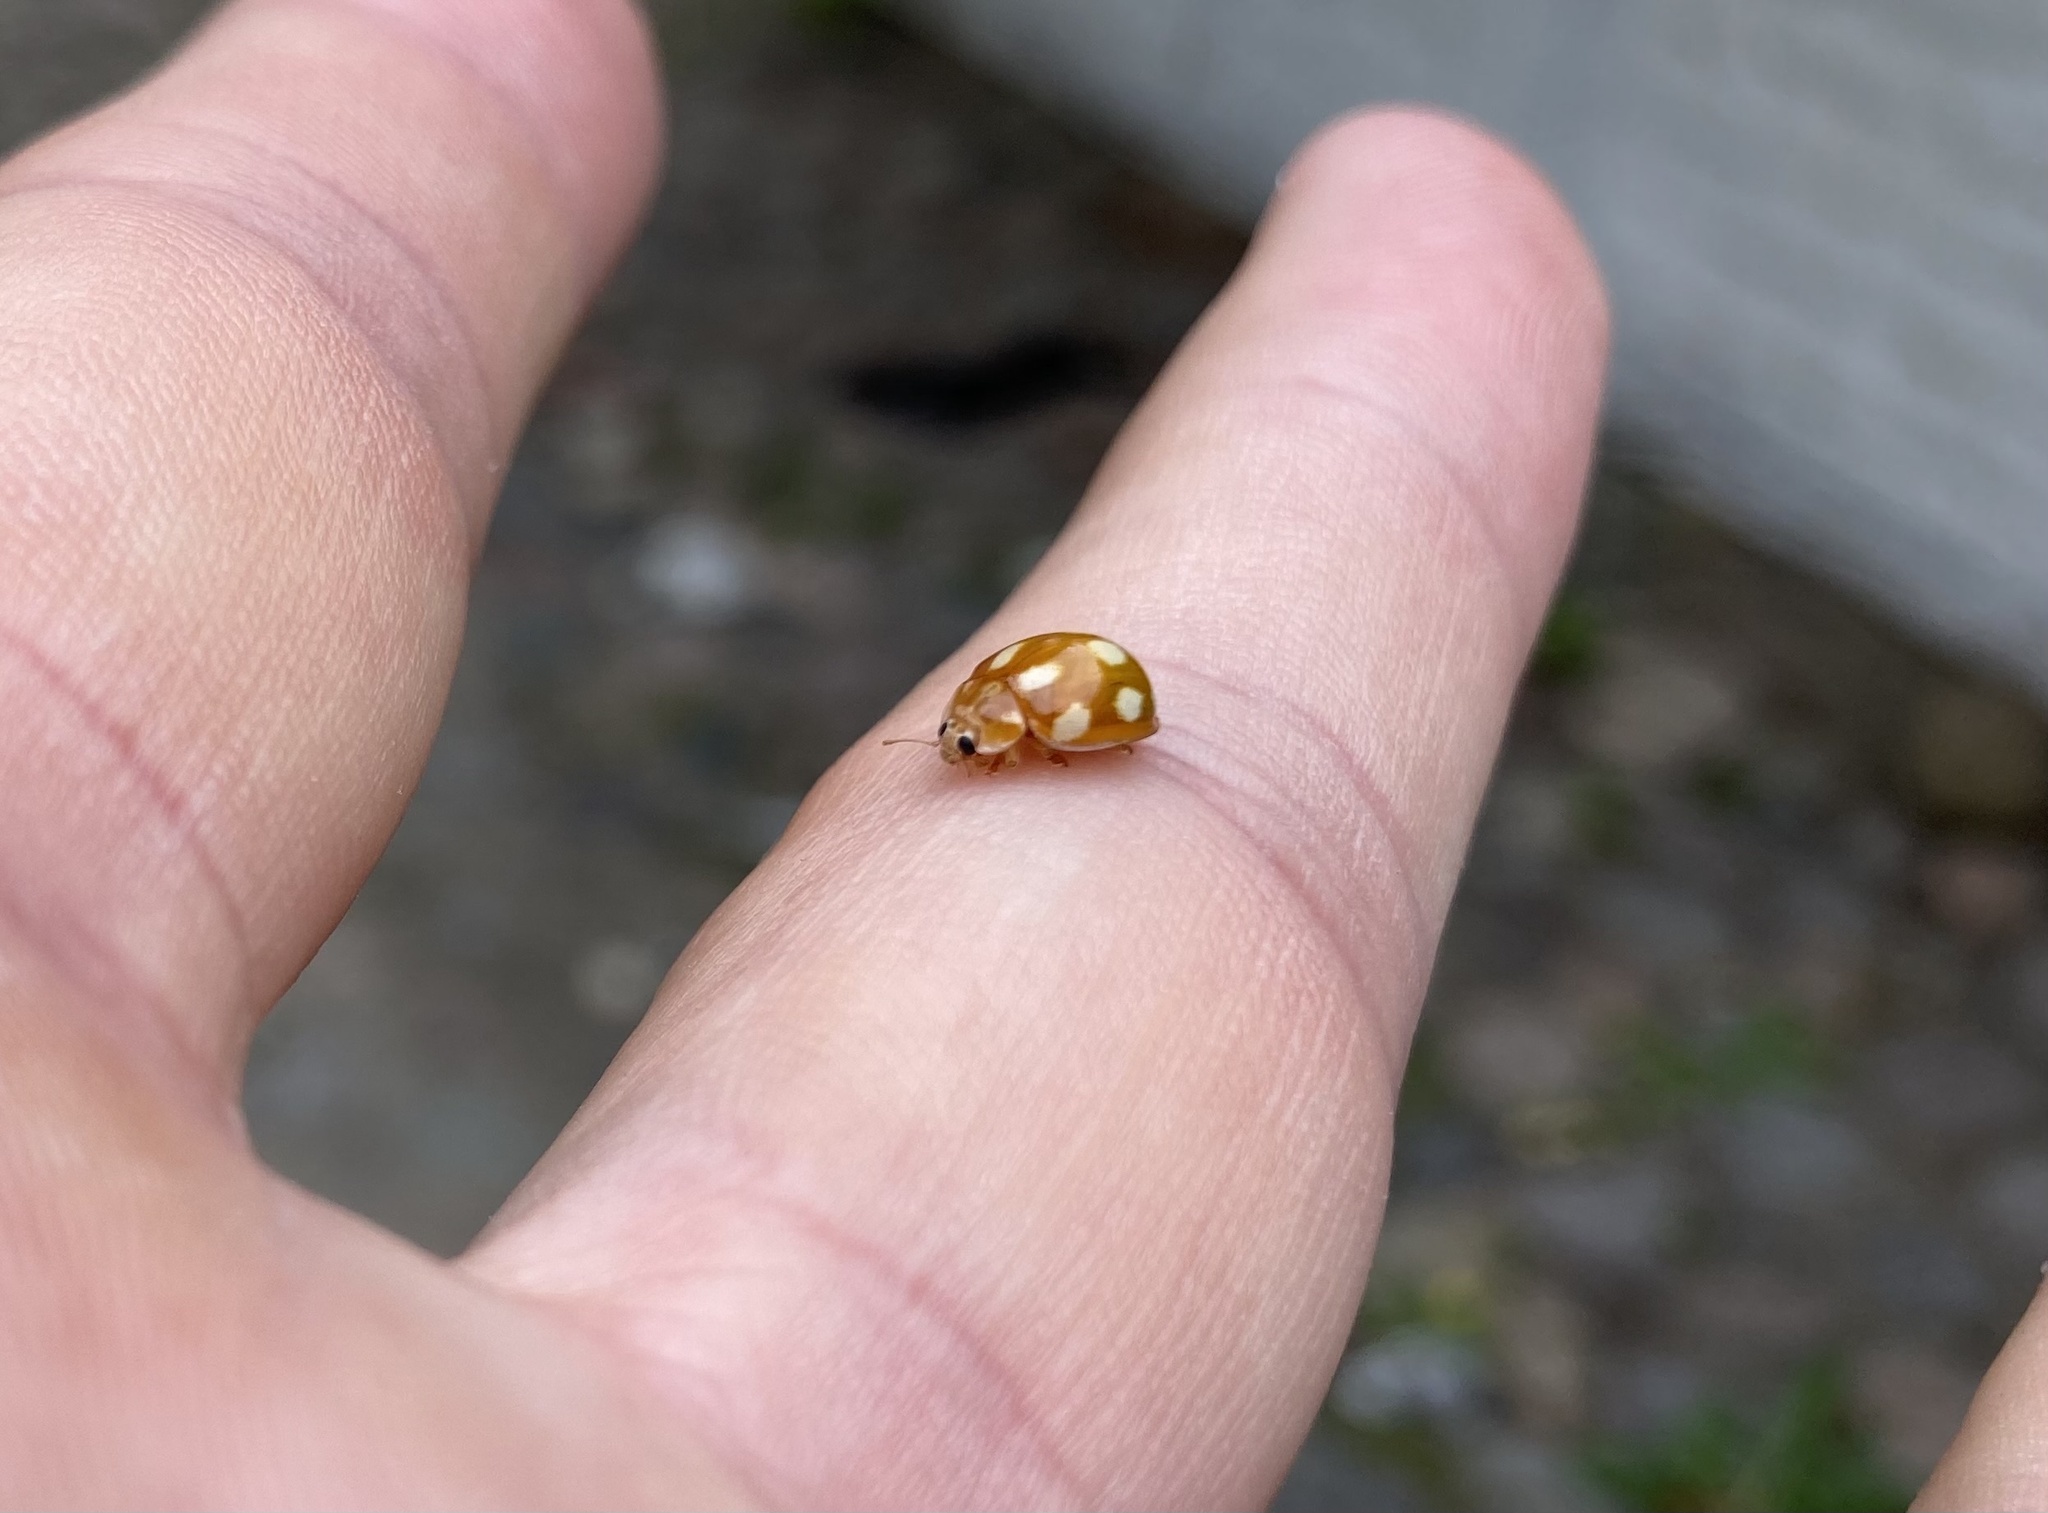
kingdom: Animalia
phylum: Arthropoda
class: Insecta
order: Coleoptera
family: Coccinellidae
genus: Calvia
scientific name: Calvia decemguttata
